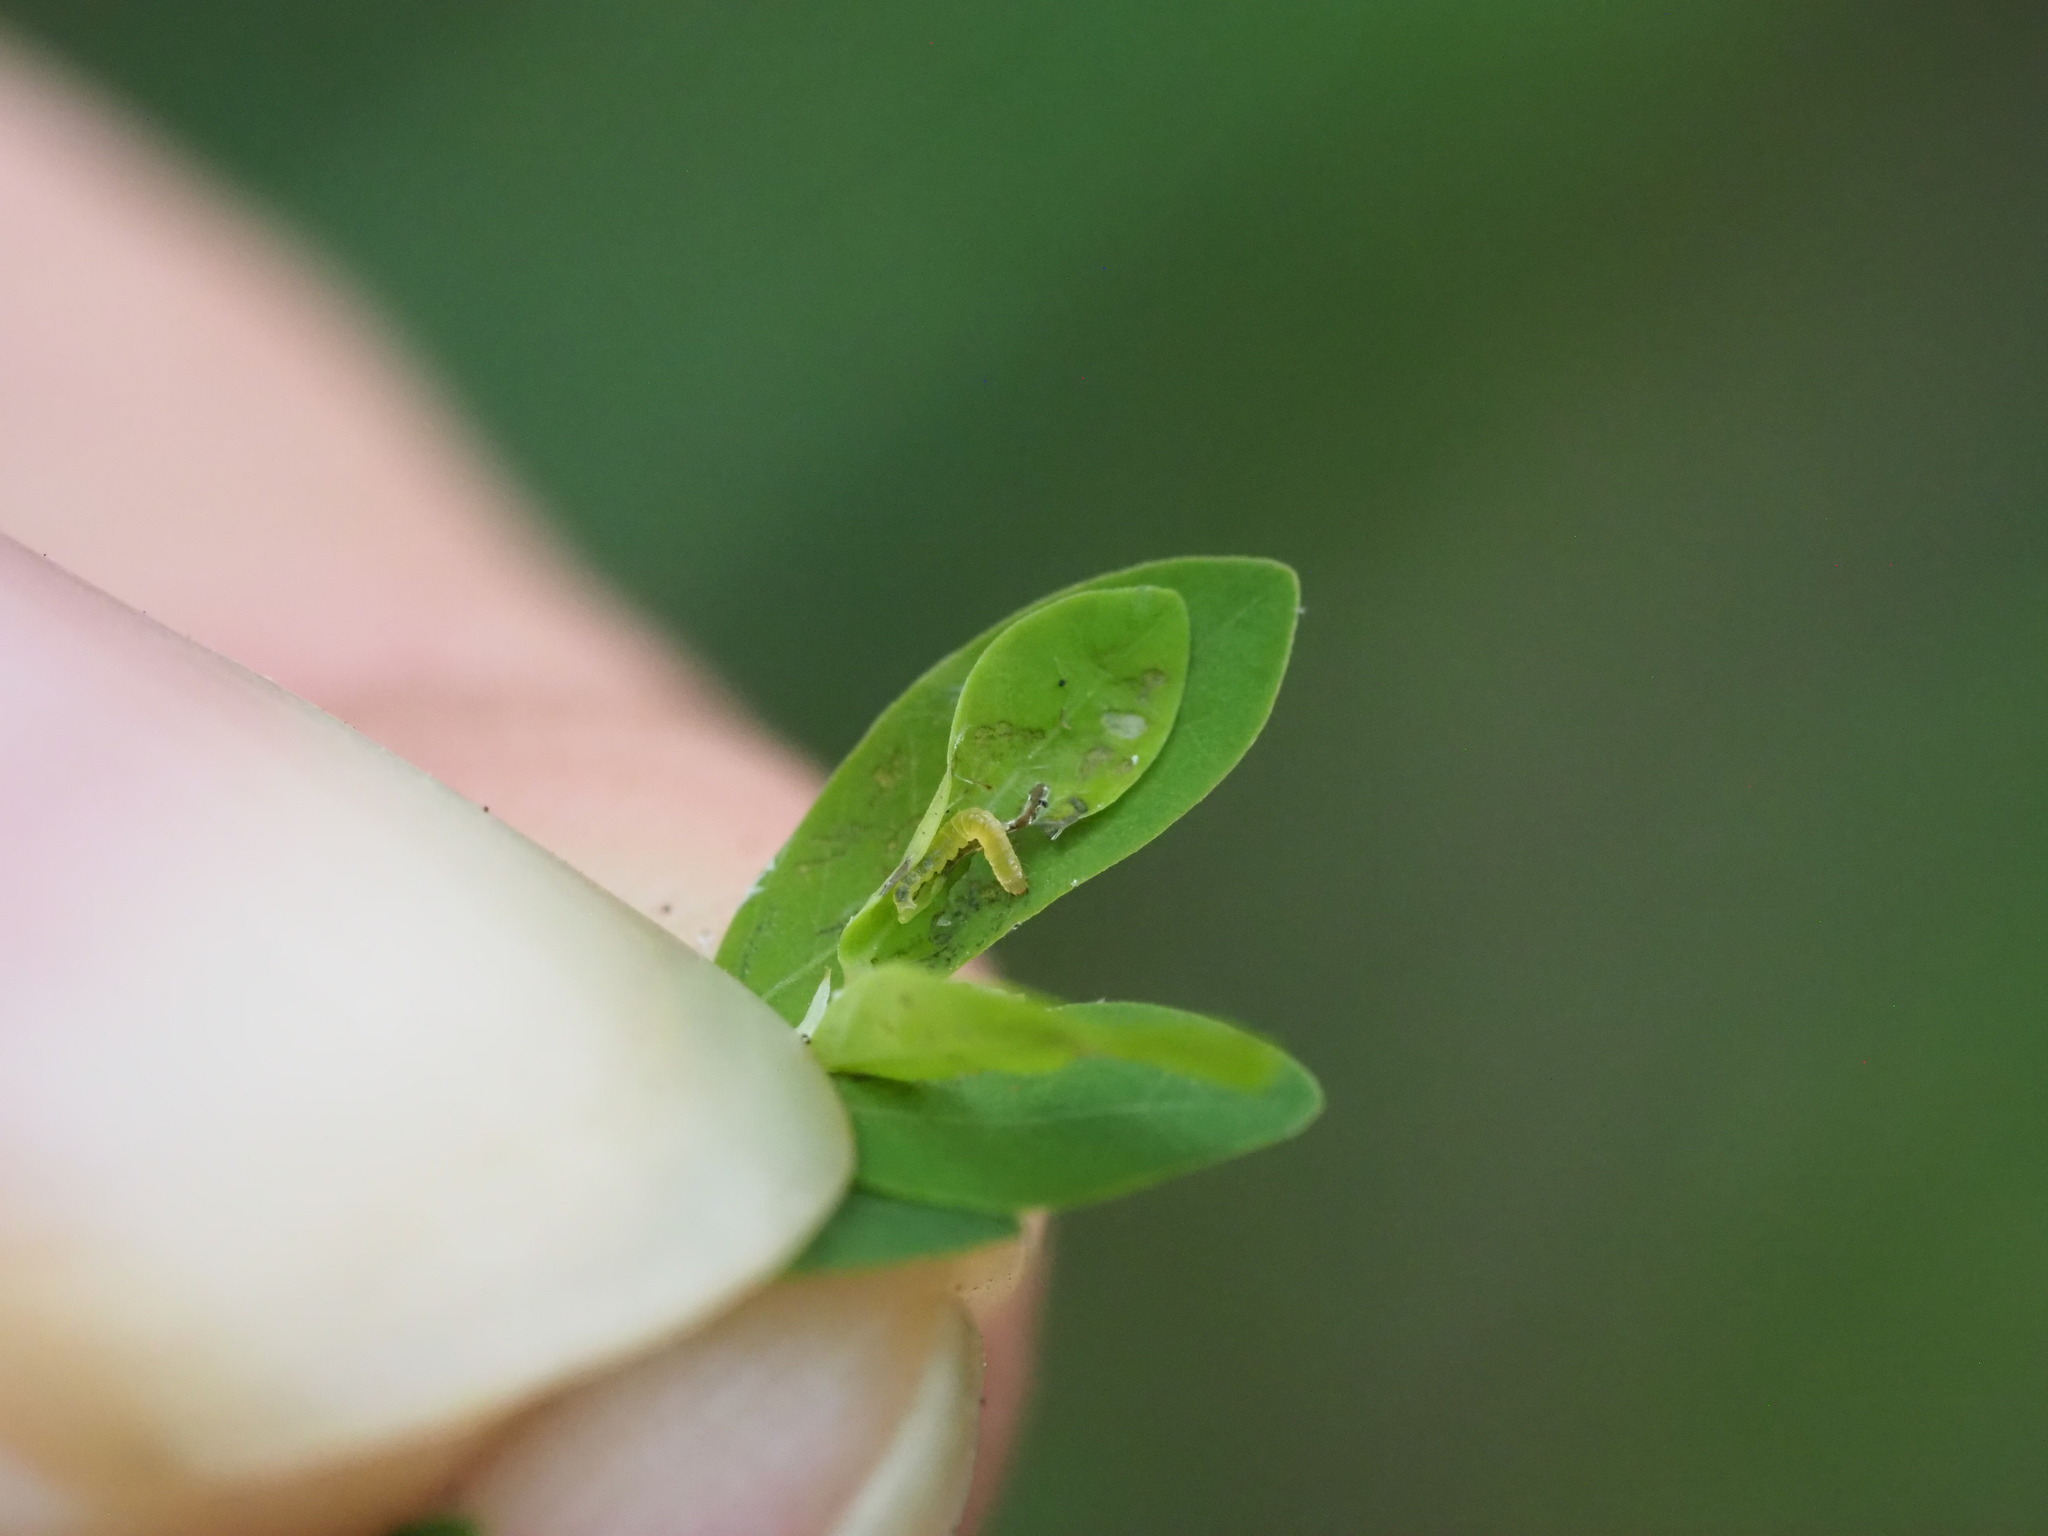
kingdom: Animalia
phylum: Arthropoda
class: Insecta
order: Lepidoptera
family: Tortricidae
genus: Cacocharis
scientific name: Cacocharis cymotoma
